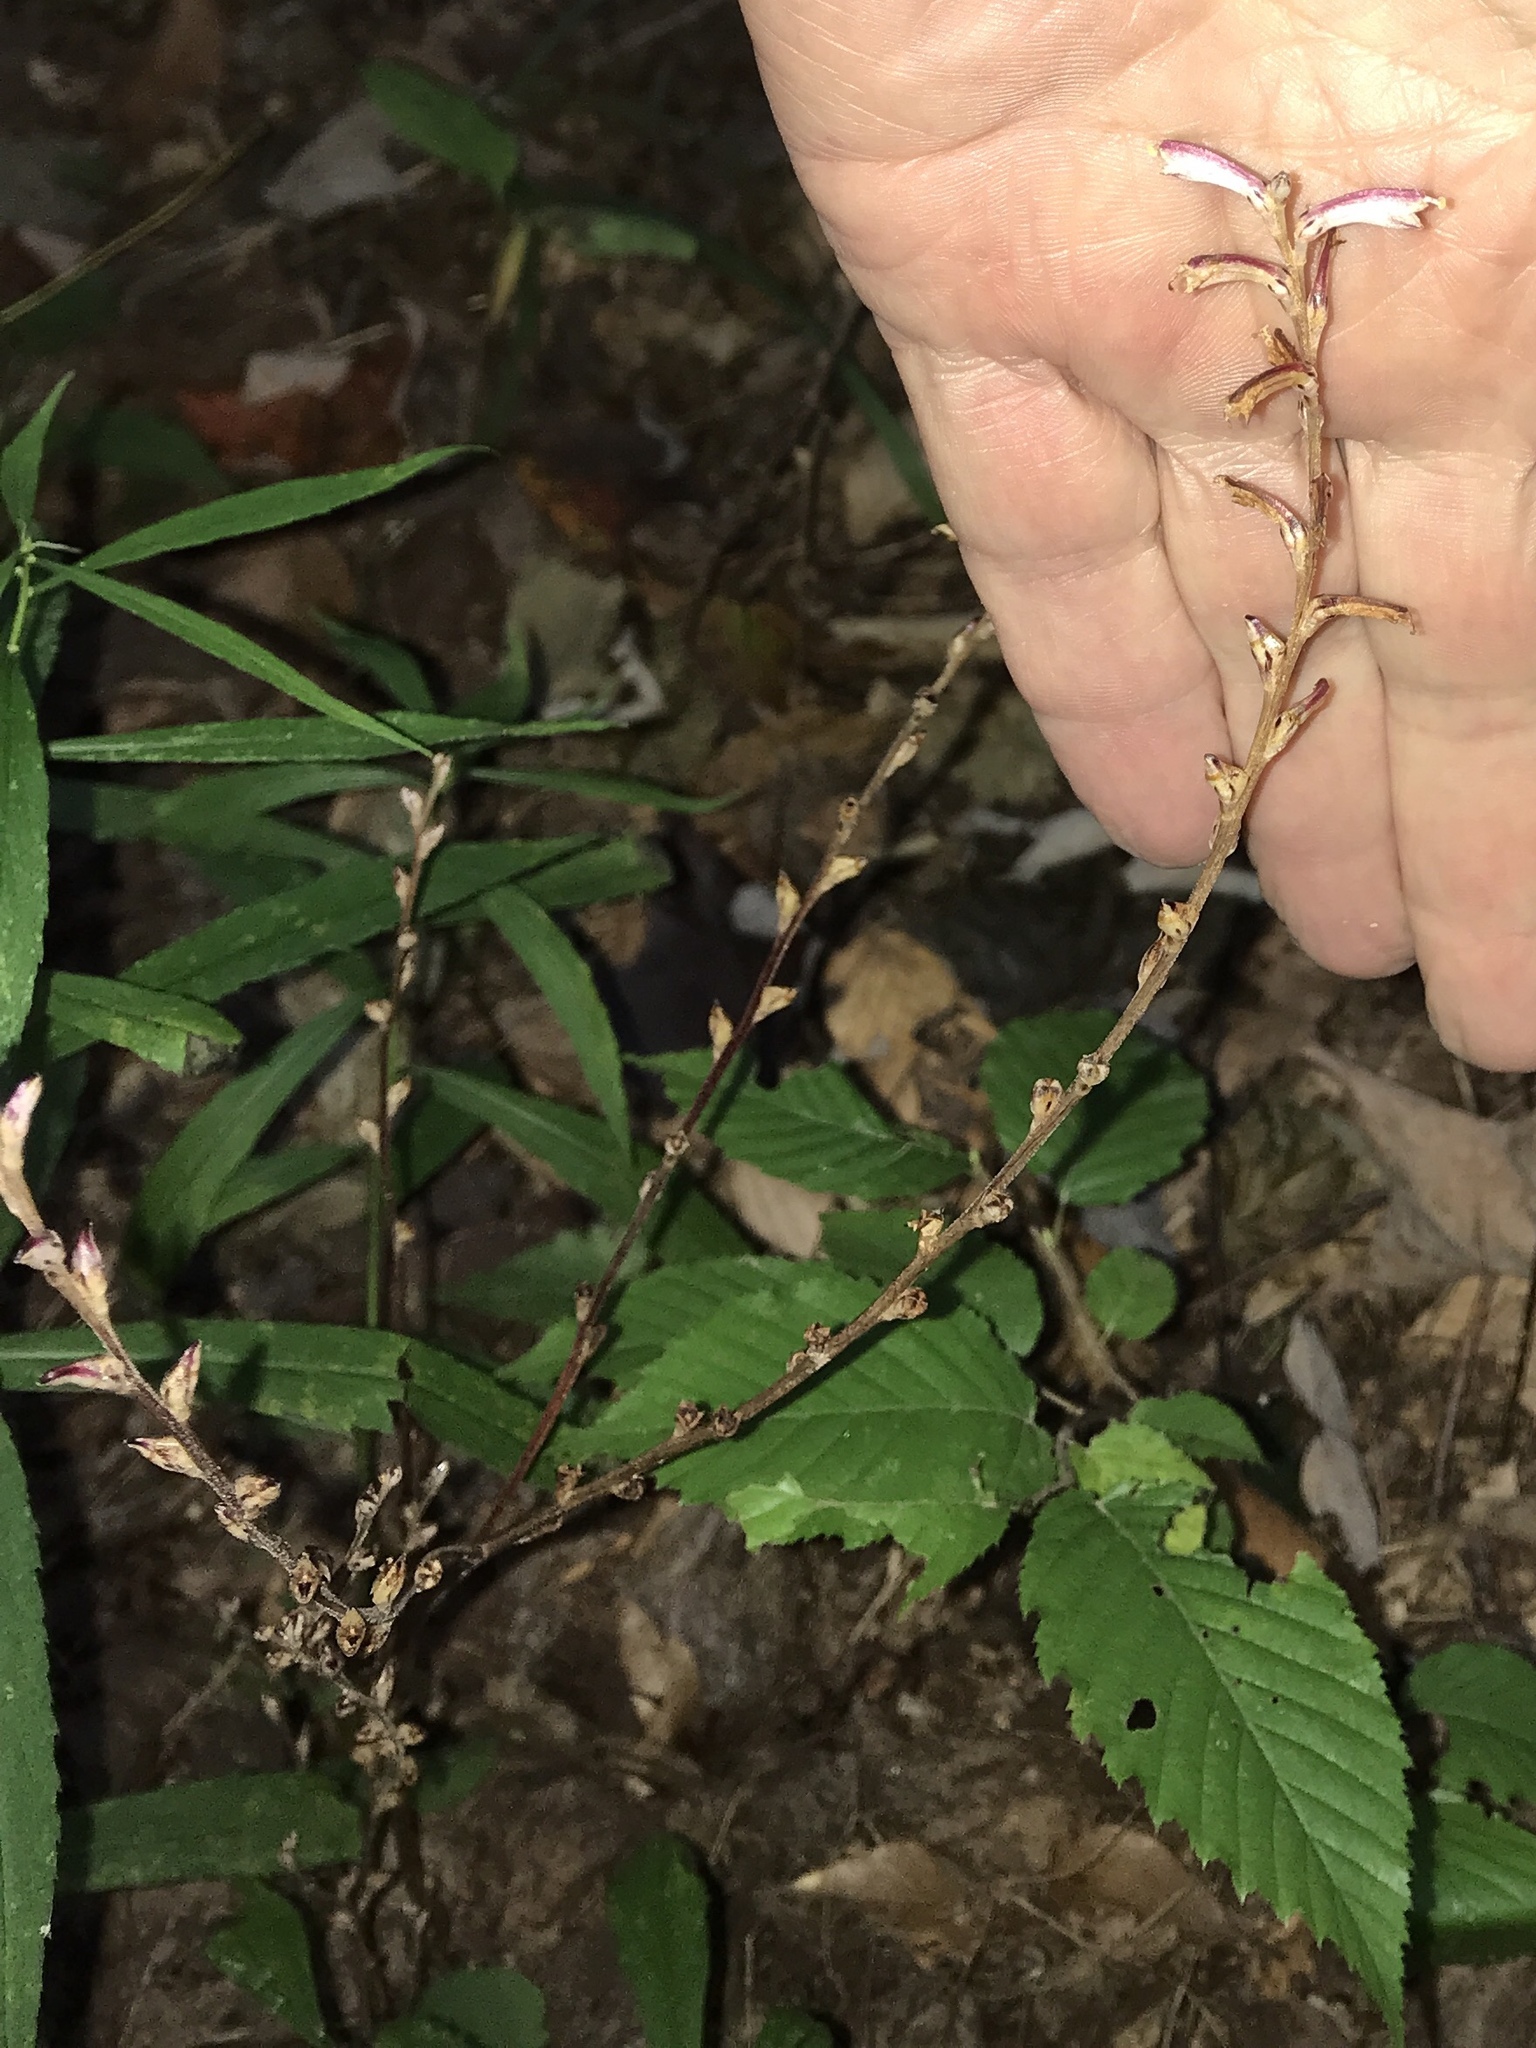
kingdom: Plantae
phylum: Tracheophyta
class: Magnoliopsida
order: Lamiales
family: Orobanchaceae
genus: Epifagus
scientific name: Epifagus virginiana
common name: Beechdrops
